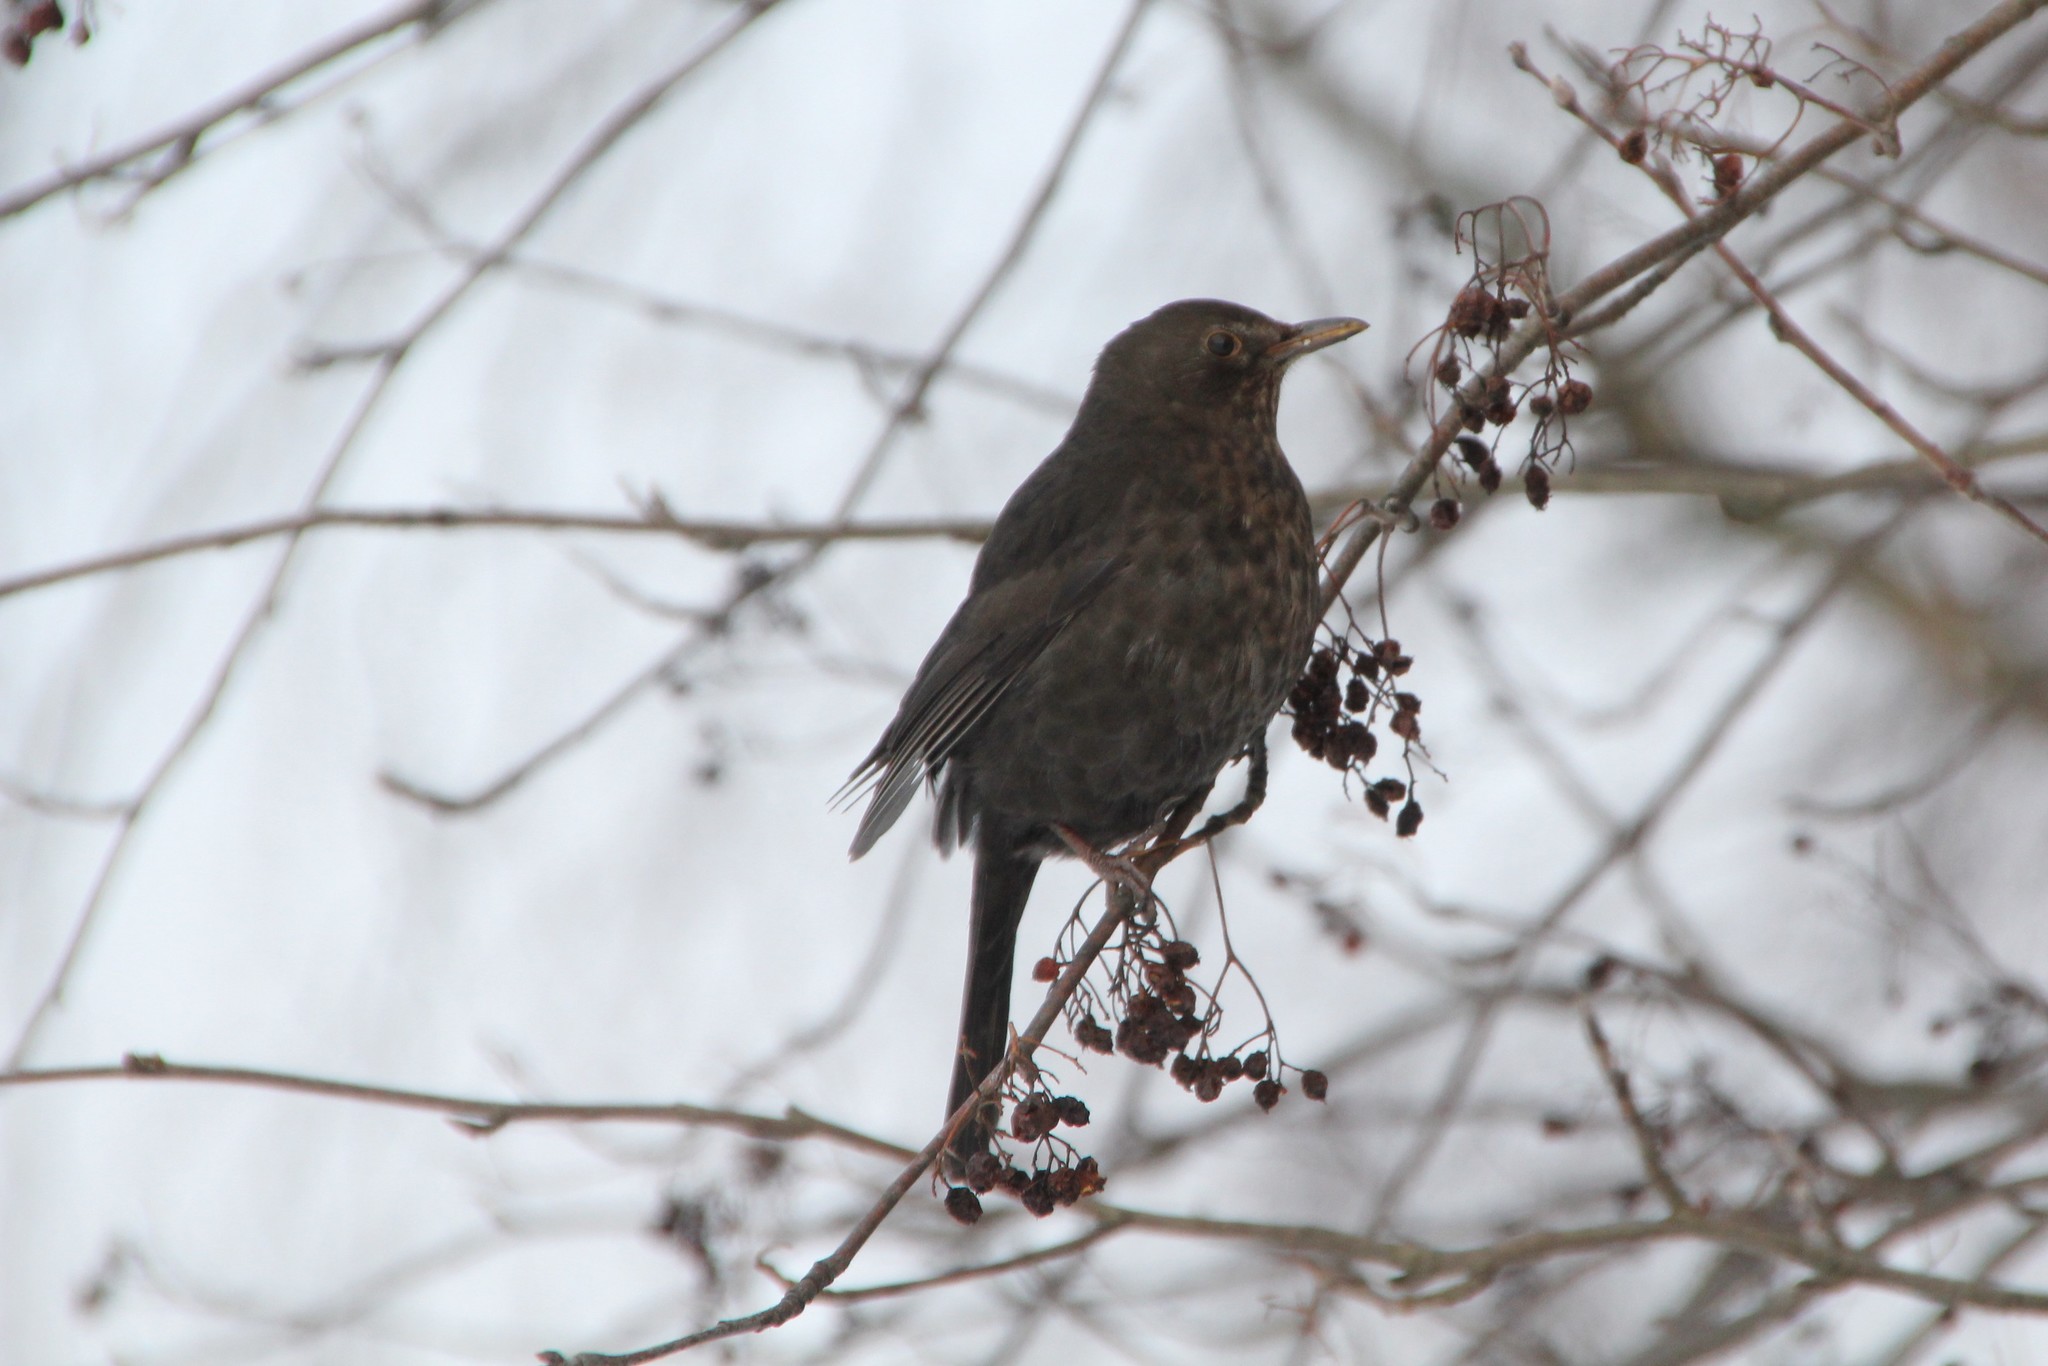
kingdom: Animalia
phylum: Chordata
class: Aves
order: Passeriformes
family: Turdidae
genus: Turdus
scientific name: Turdus merula
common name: Common blackbird
